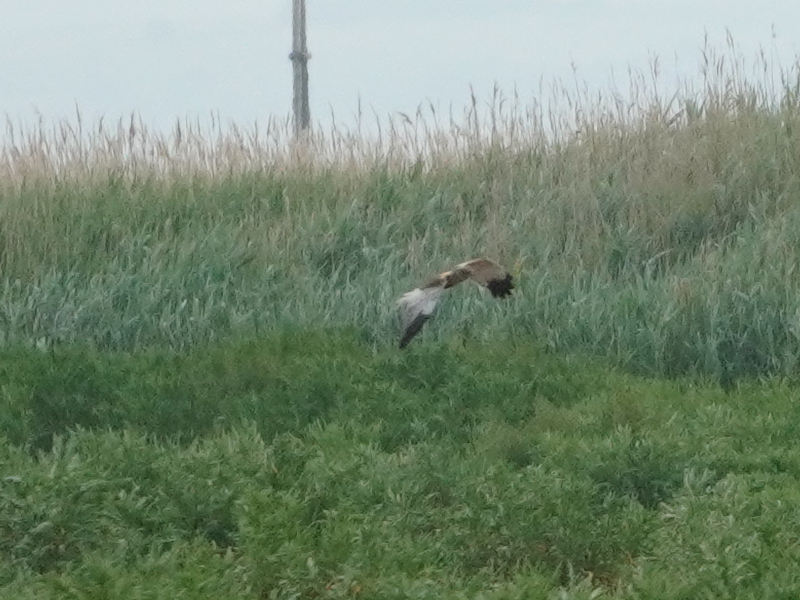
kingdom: Animalia
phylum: Chordata
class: Aves
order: Accipitriformes
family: Accipitridae
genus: Circus
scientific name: Circus aeruginosus
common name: Western marsh harrier
